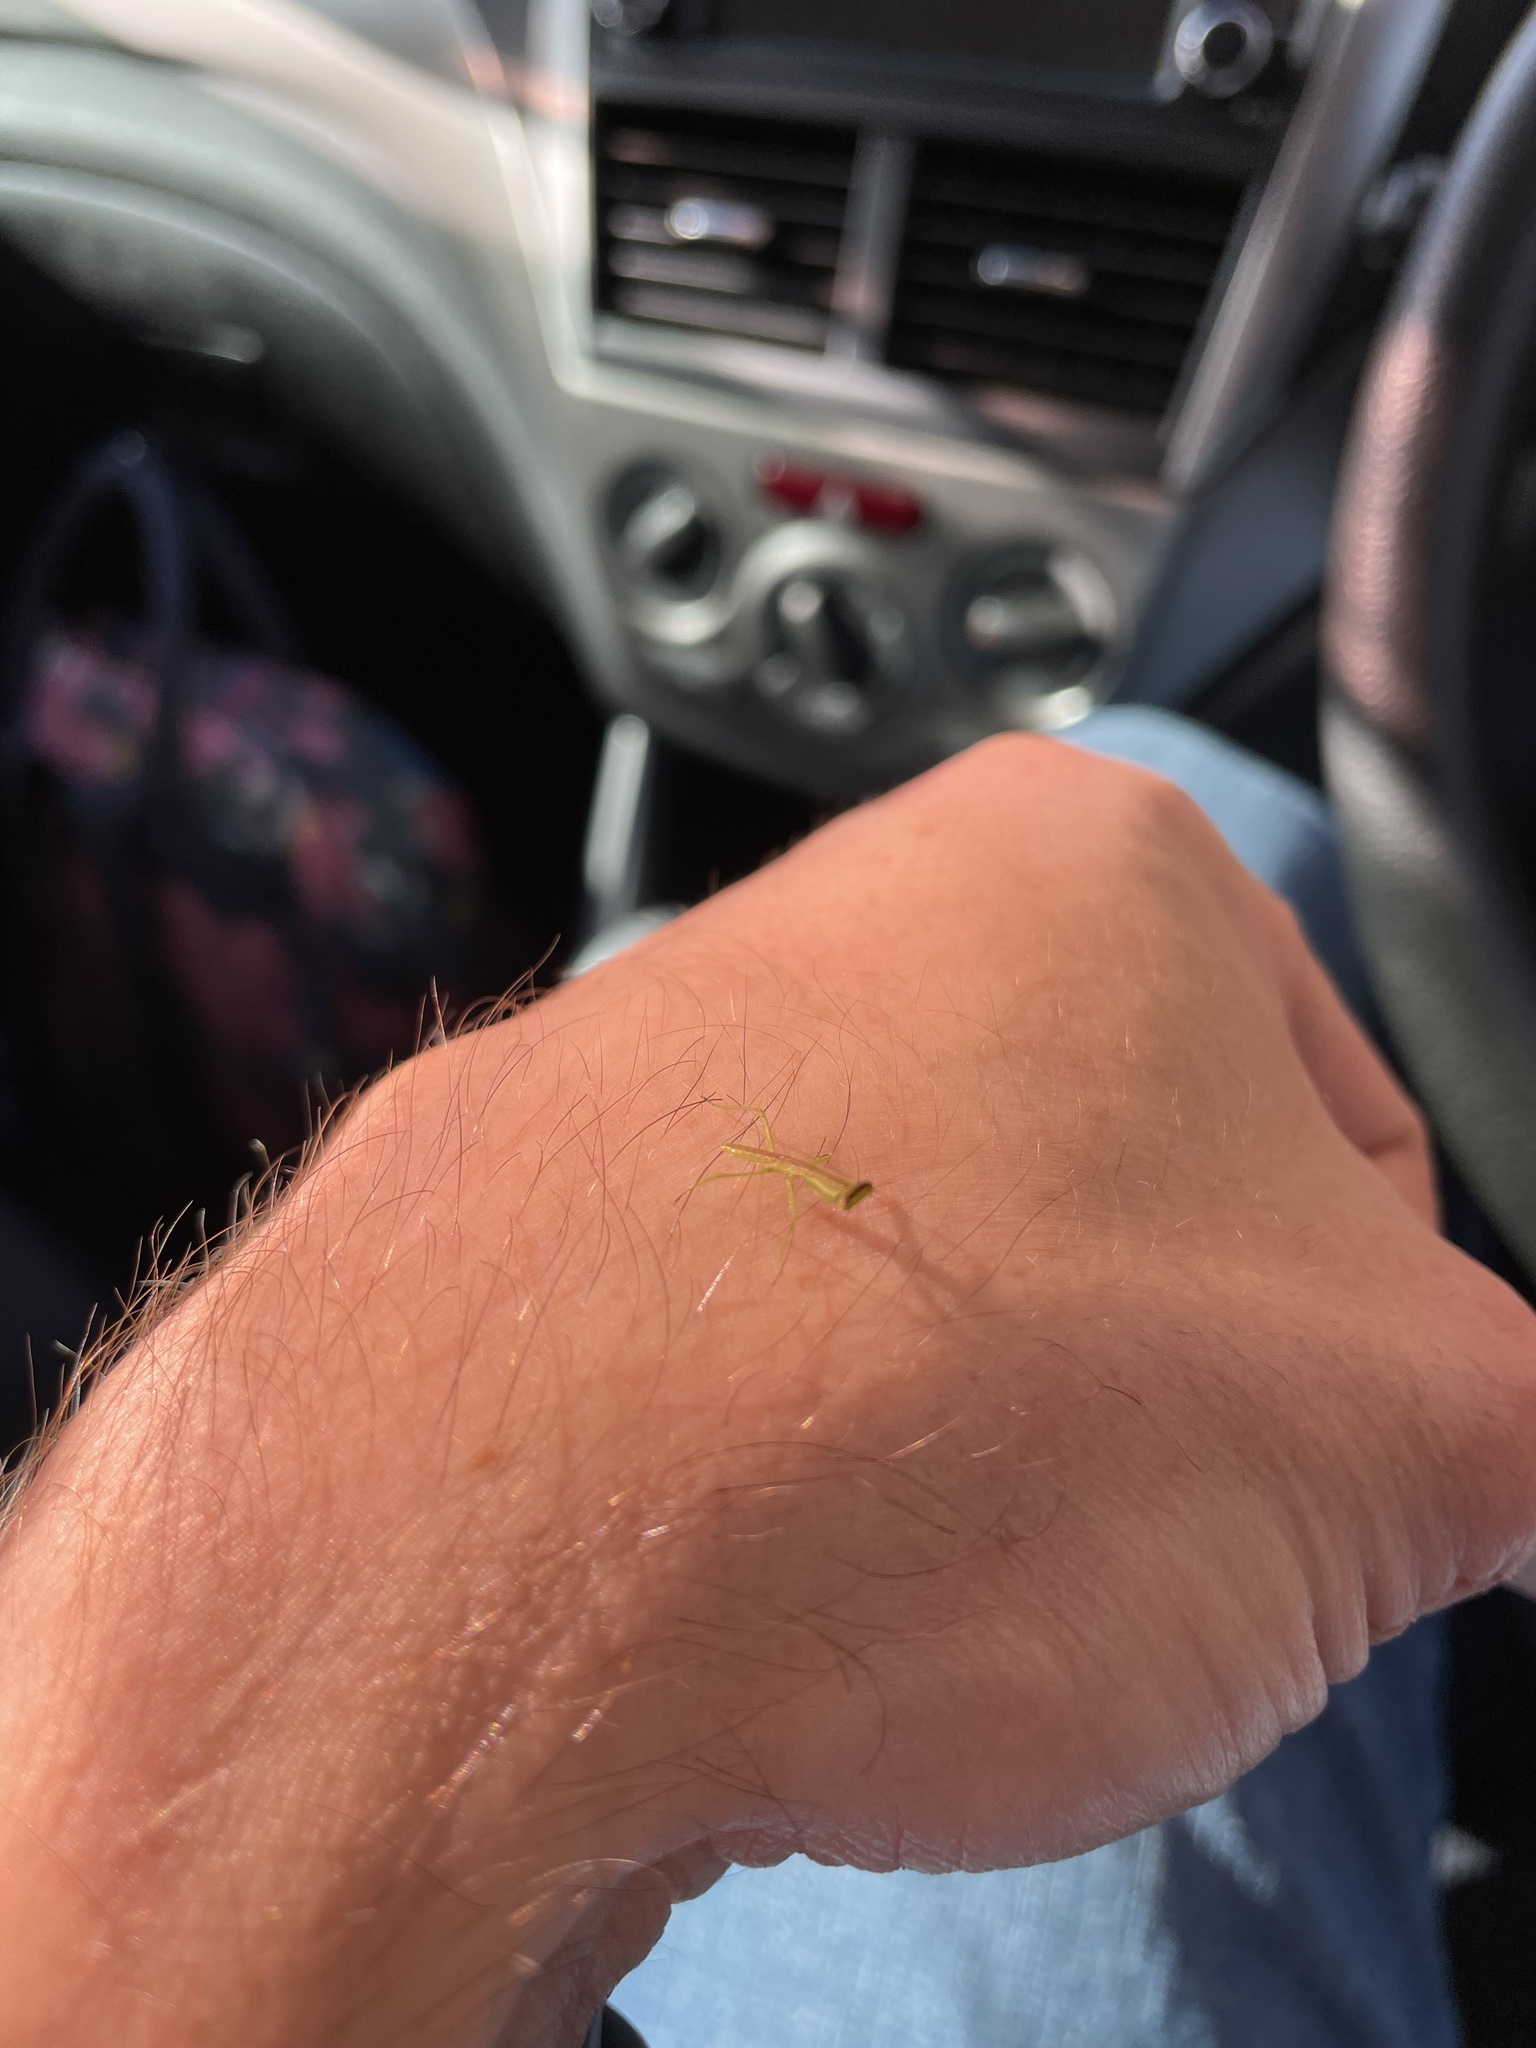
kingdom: Animalia
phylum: Arthropoda
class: Insecta
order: Mantodea
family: Mantidae
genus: Orthodera
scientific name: Orthodera ministralis
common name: Mantis
